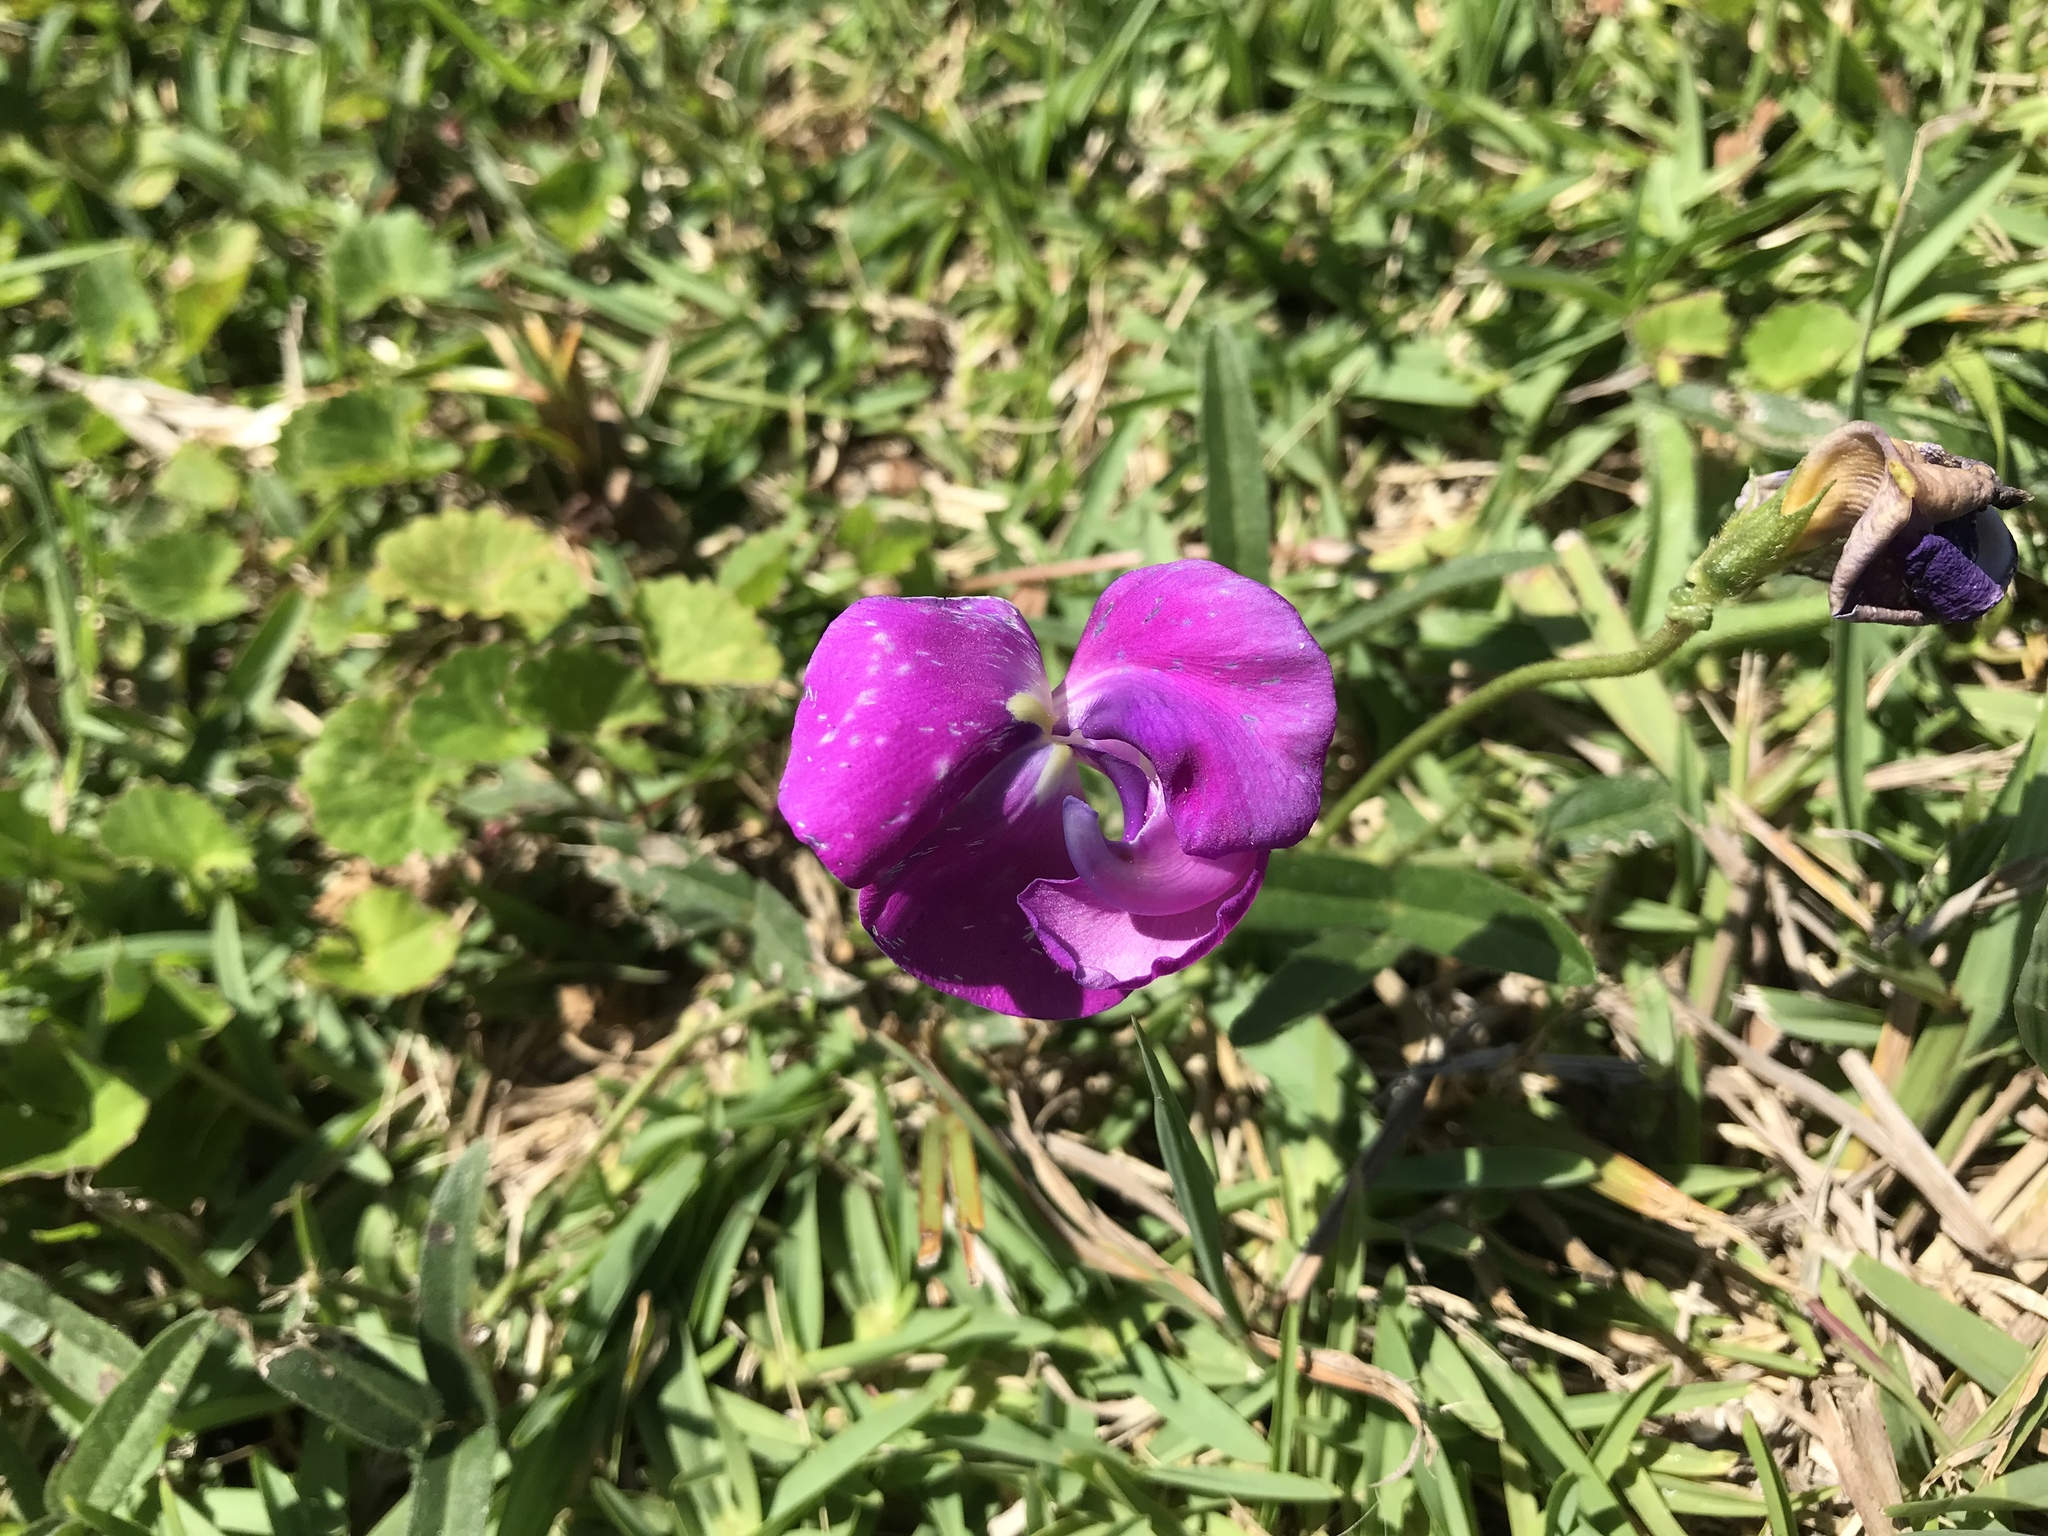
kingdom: Plantae
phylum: Tracheophyta
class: Magnoliopsida
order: Fabales
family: Fabaceae
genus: Vigna
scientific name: Vigna vexillata
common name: Zombi pea
